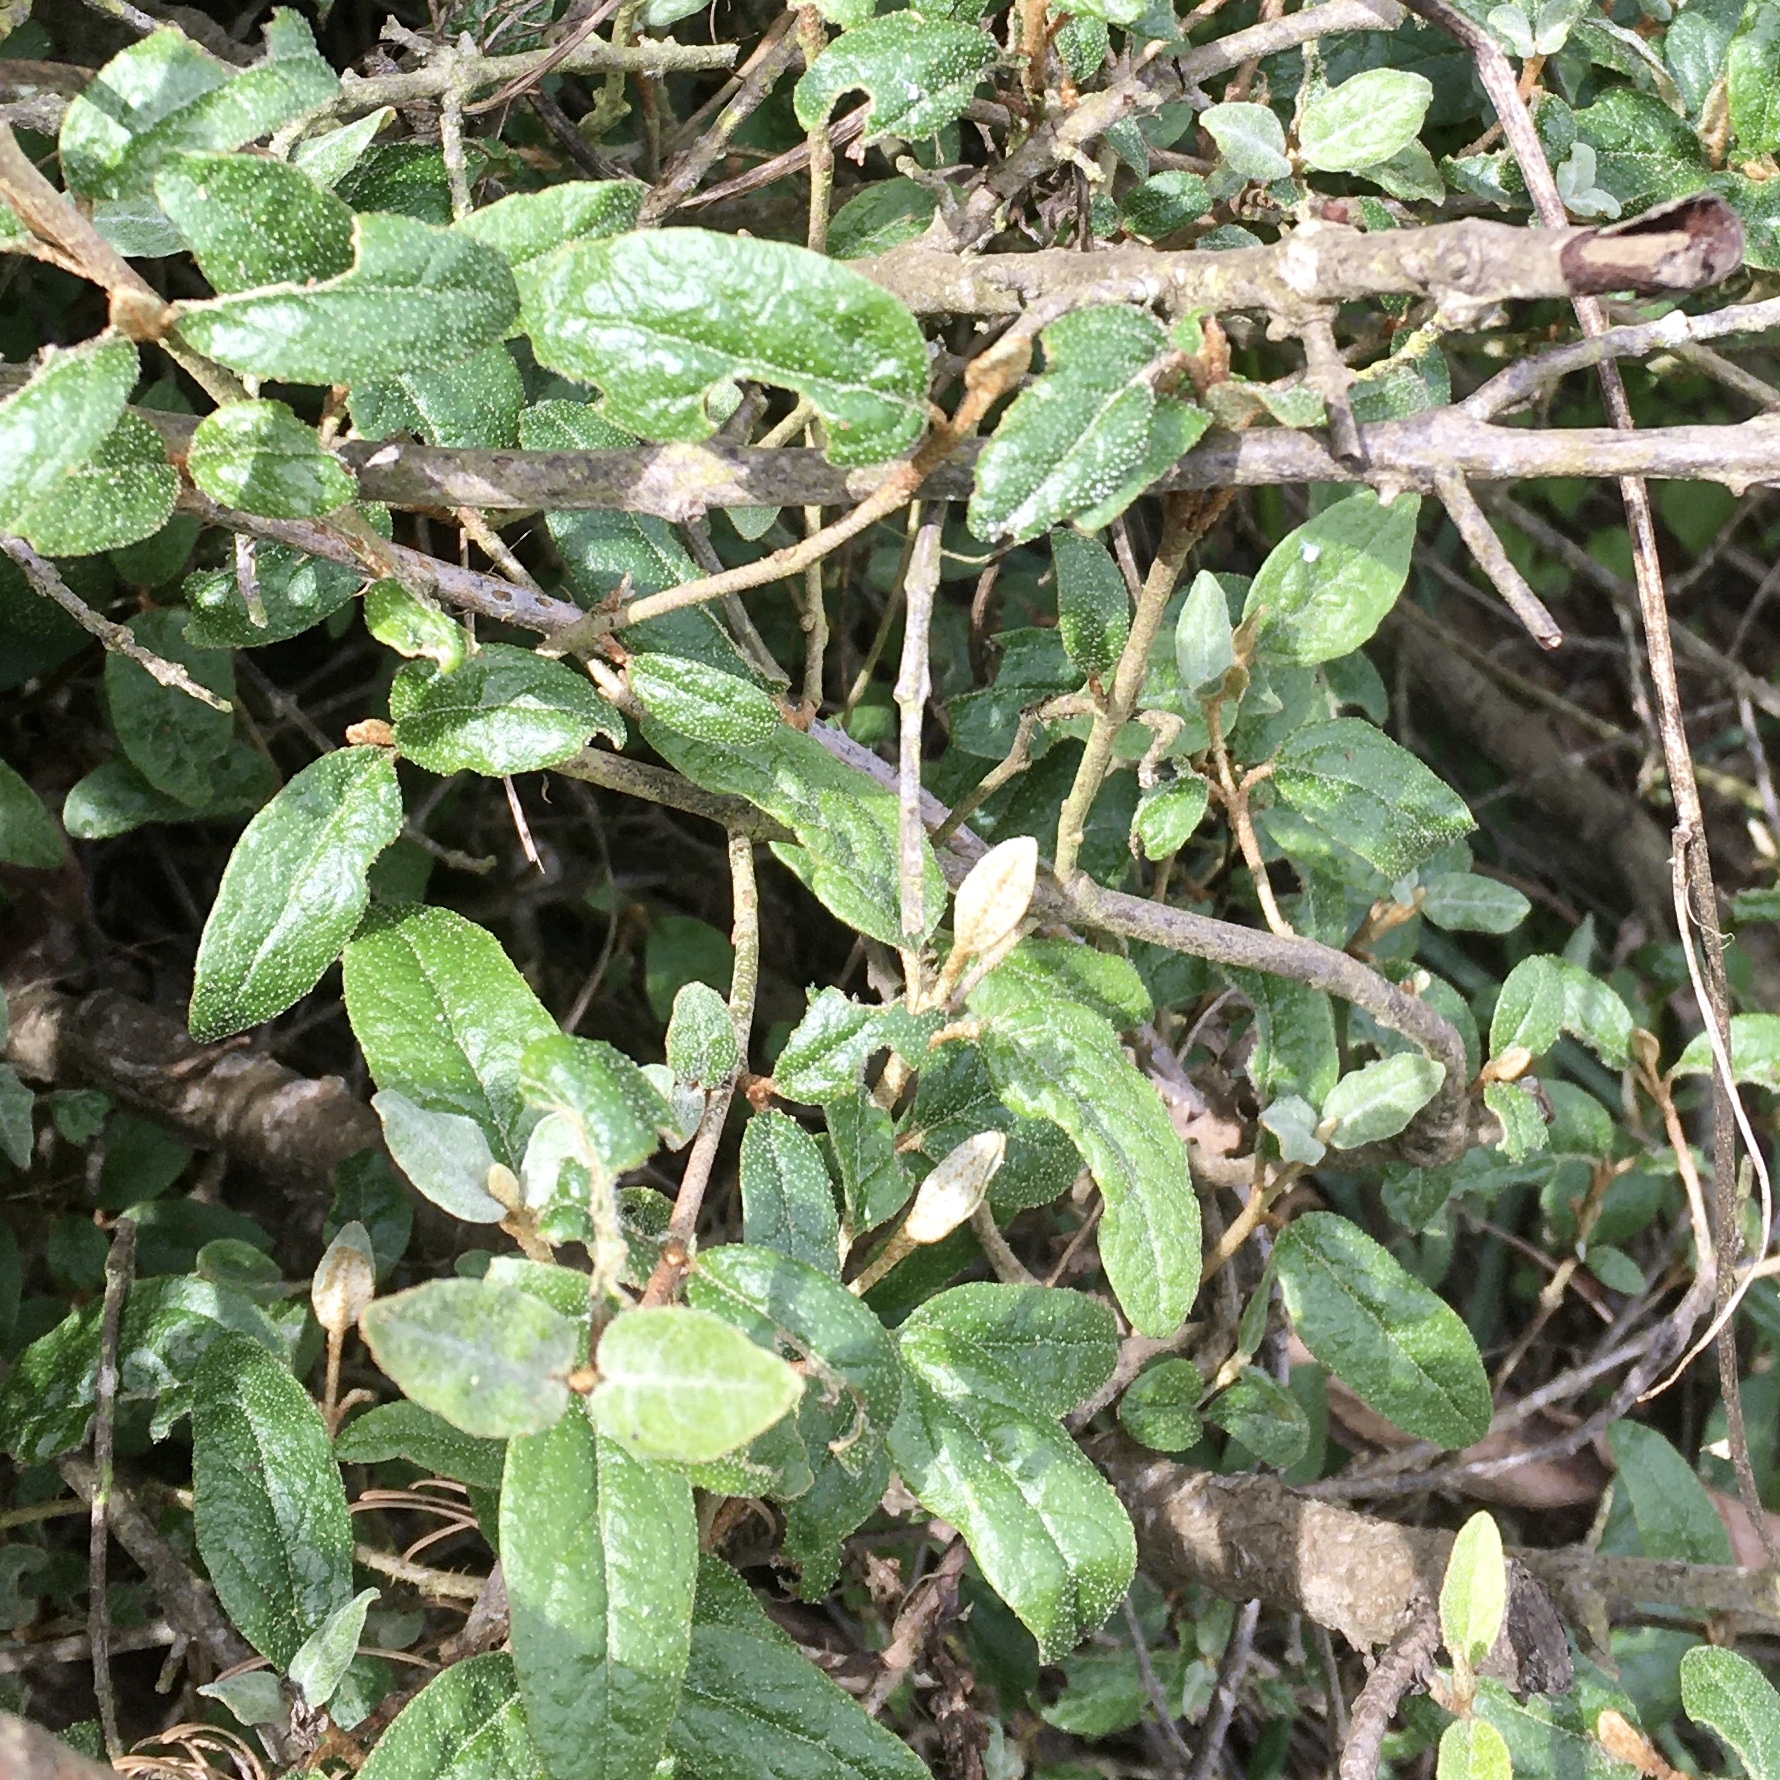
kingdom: Plantae
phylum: Tracheophyta
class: Magnoliopsida
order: Rosales
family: Elaeagnaceae
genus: Shepherdia
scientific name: Shepherdia canadensis
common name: Soapberry
